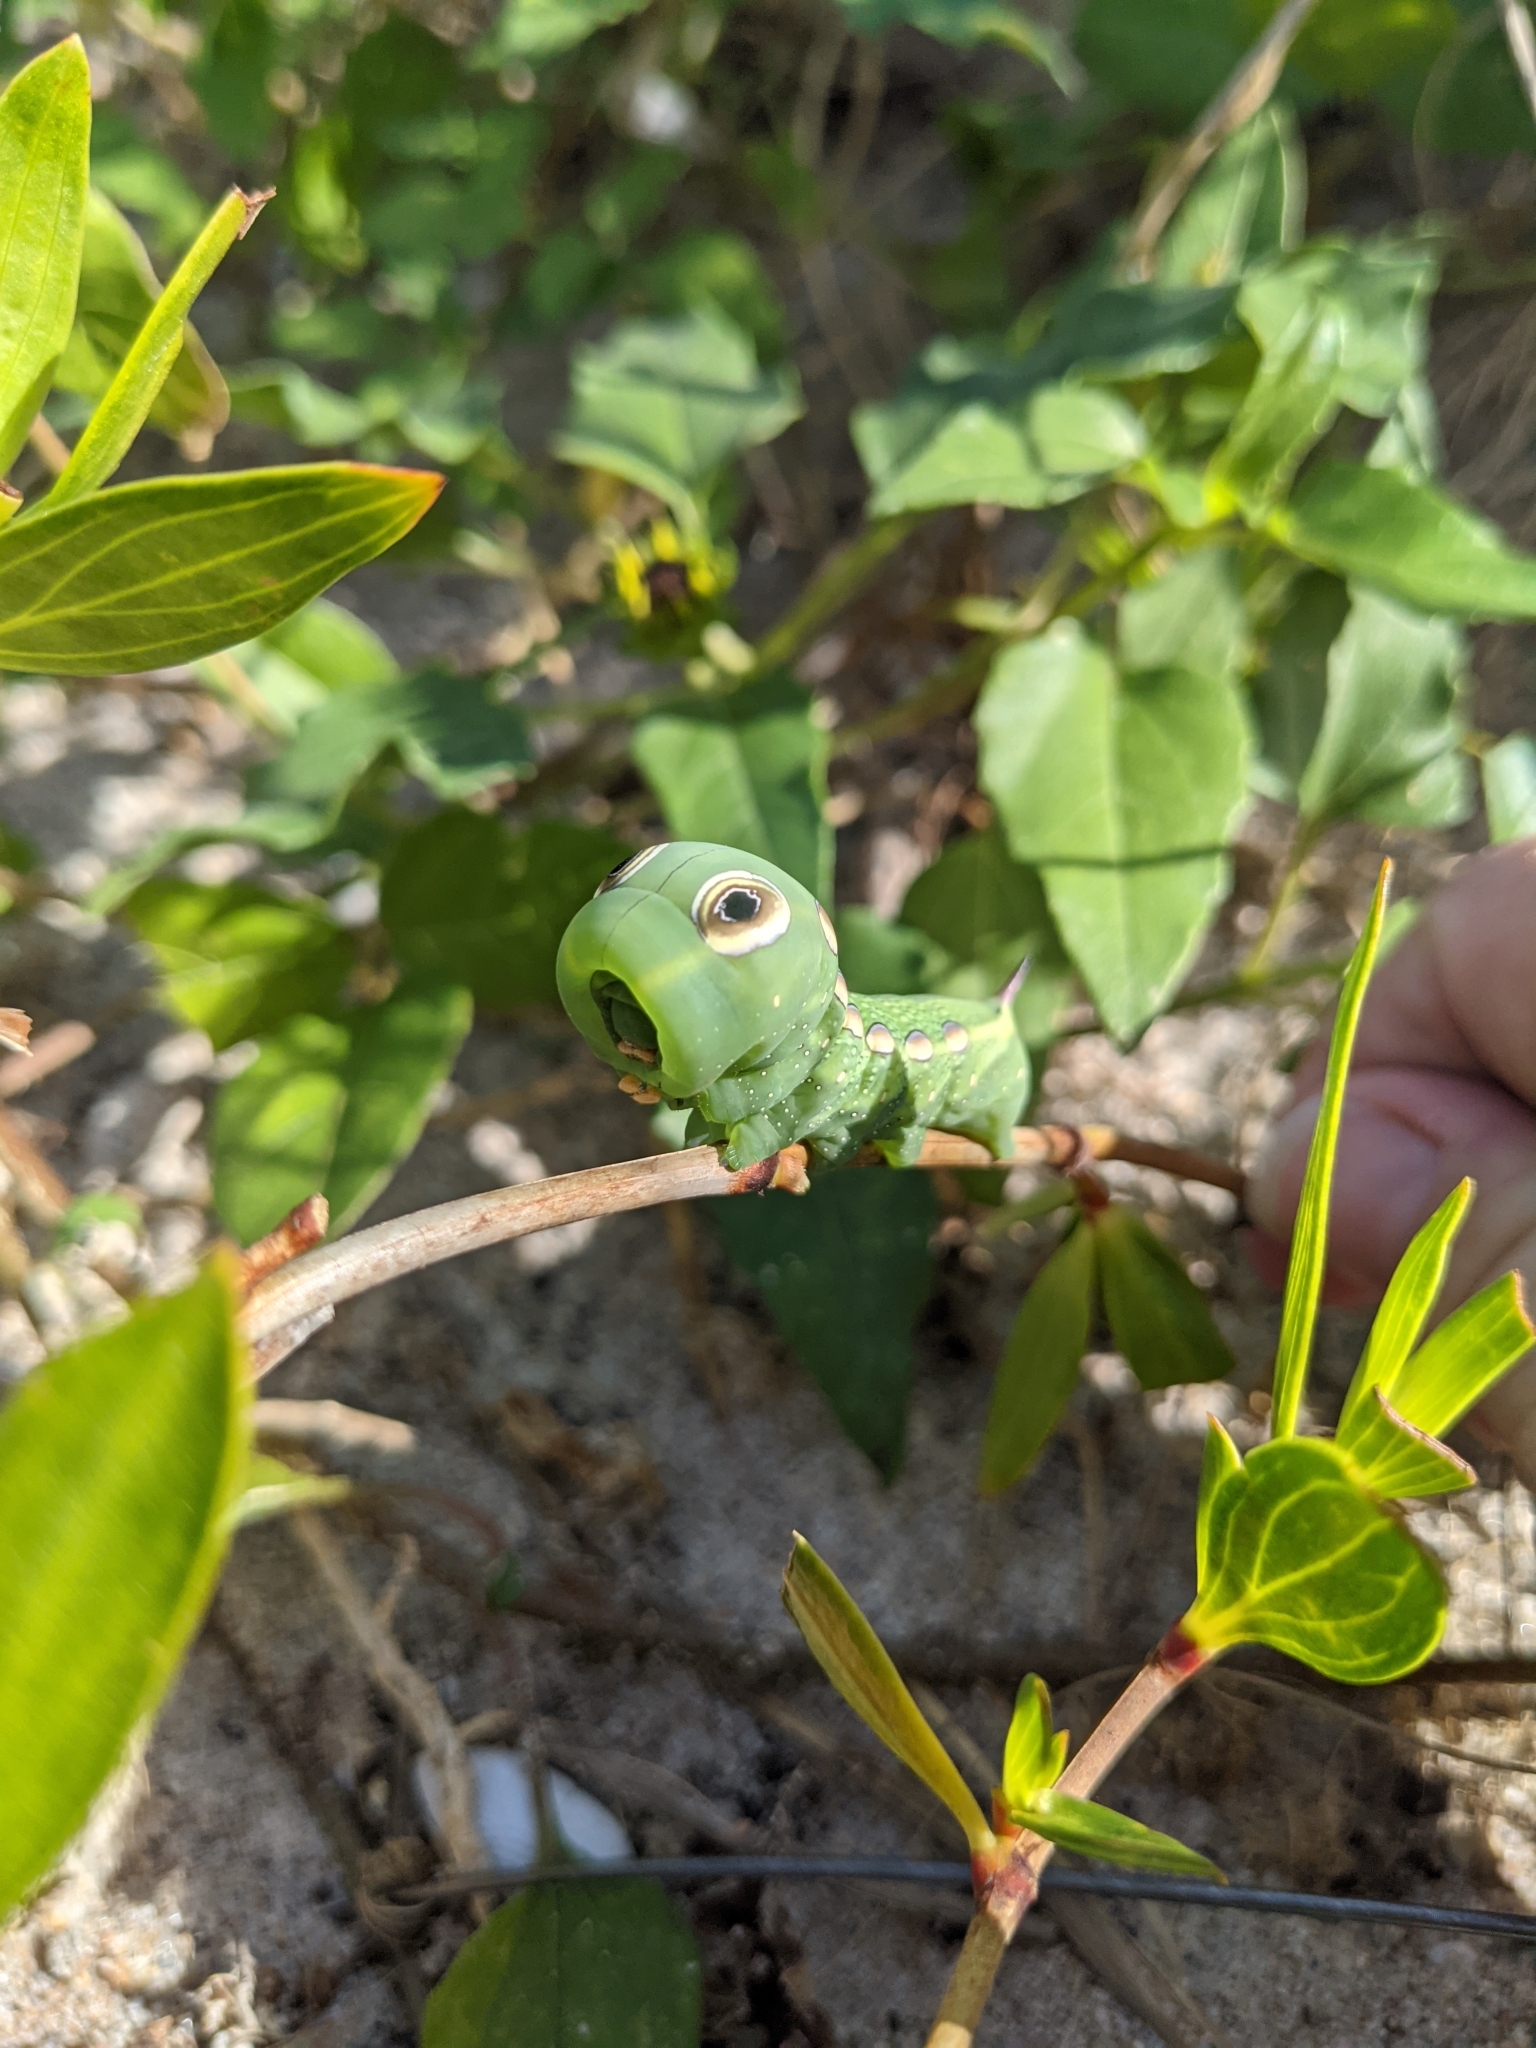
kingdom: Animalia
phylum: Arthropoda
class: Insecta
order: Lepidoptera
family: Sphingidae
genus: Xylophanes
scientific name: Xylophanes tersa
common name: Tersa sphinx
